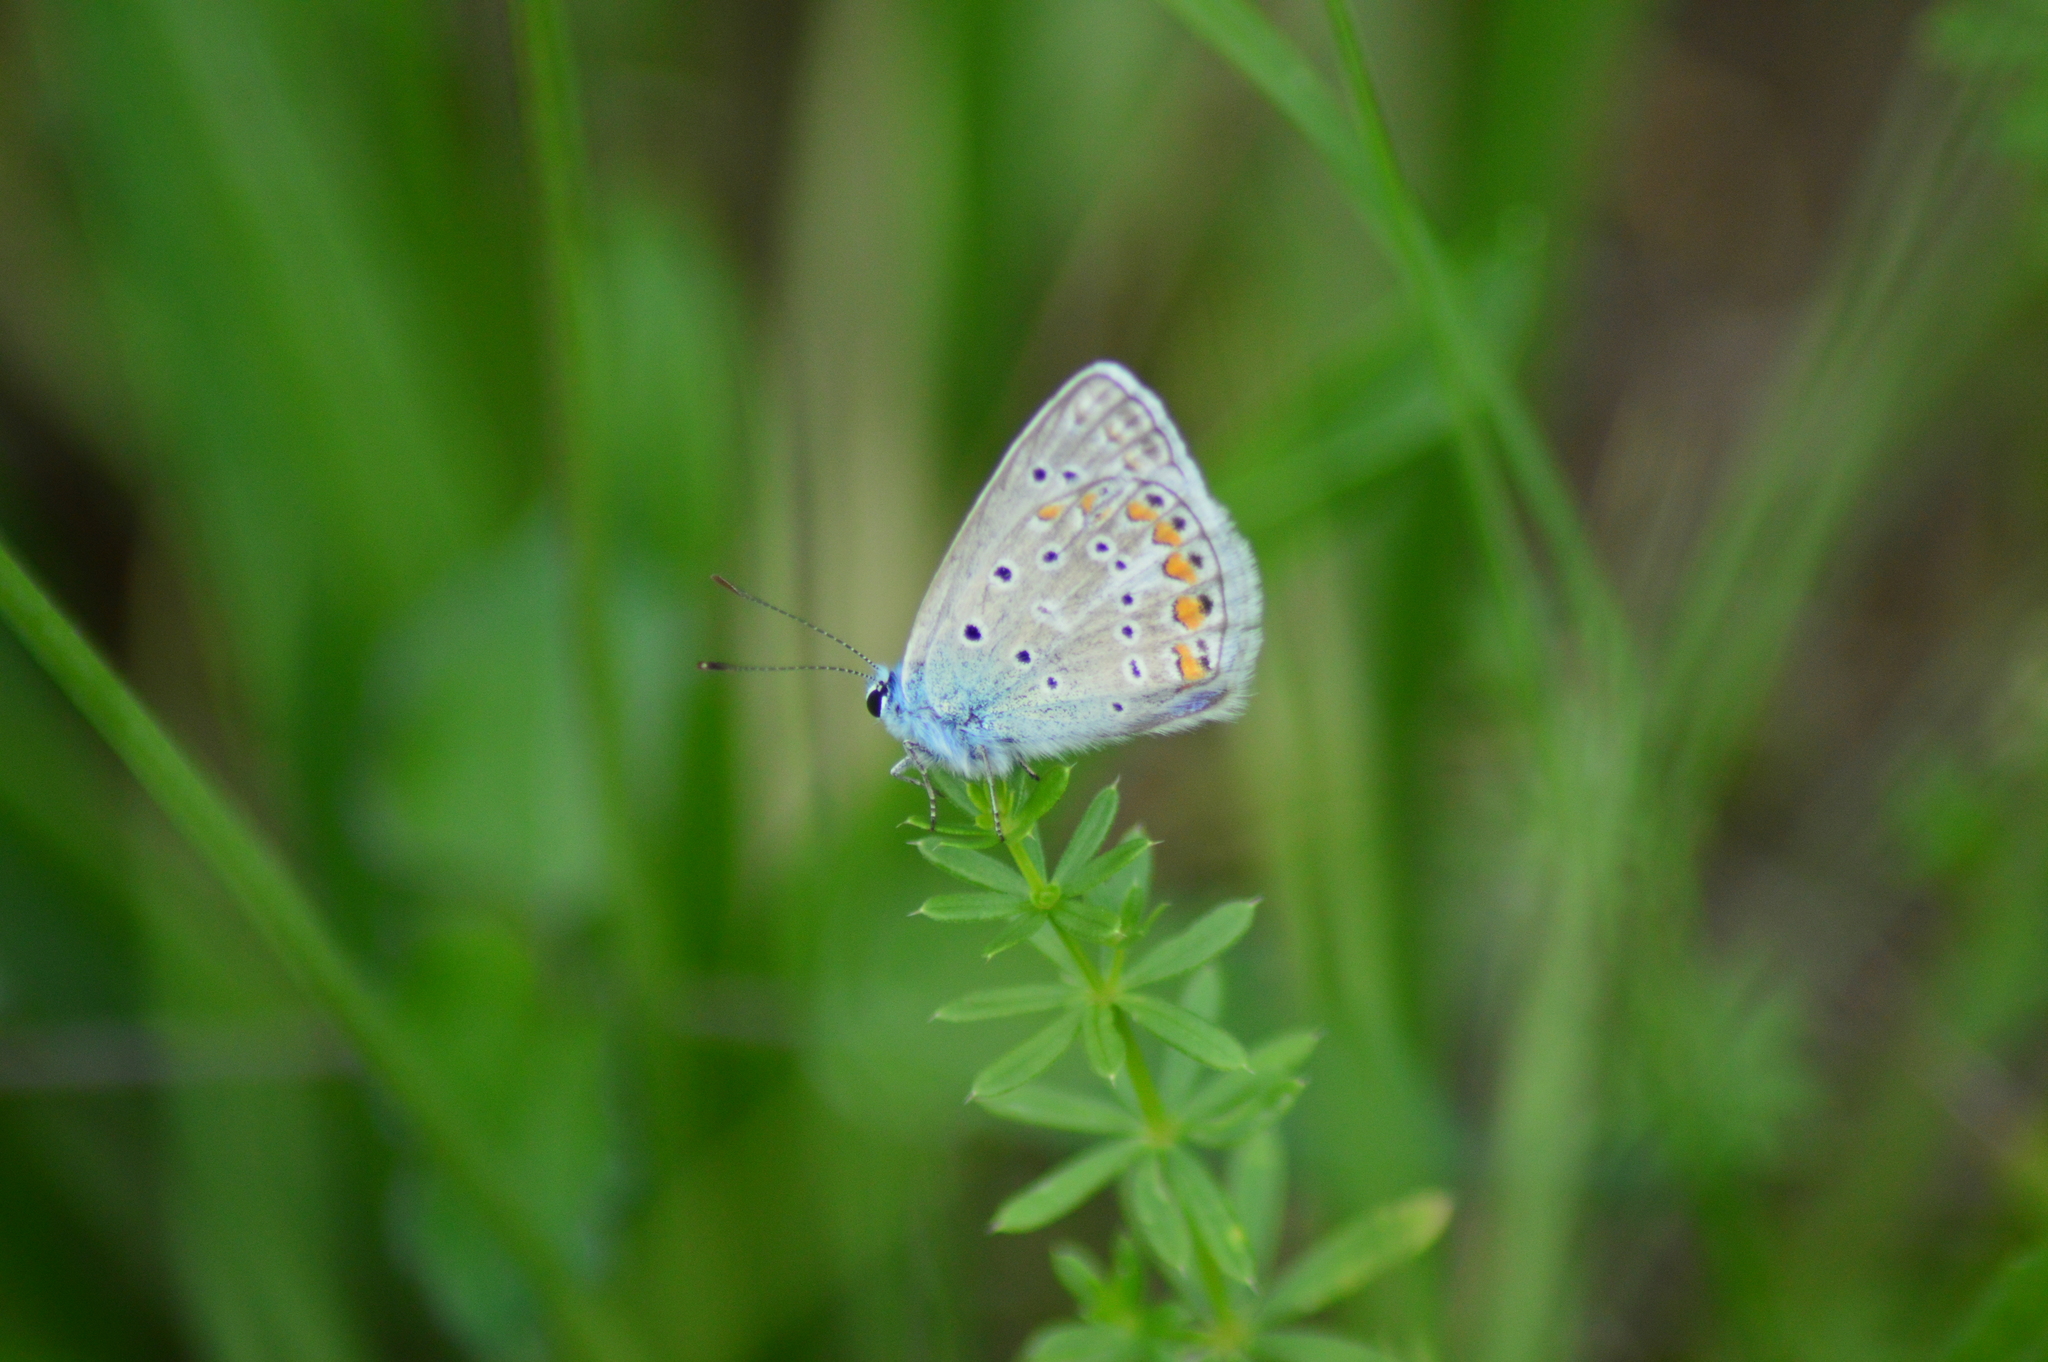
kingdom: Animalia
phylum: Arthropoda
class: Insecta
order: Lepidoptera
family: Lycaenidae
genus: Polyommatus
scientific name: Polyommatus icarus
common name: Common blue
